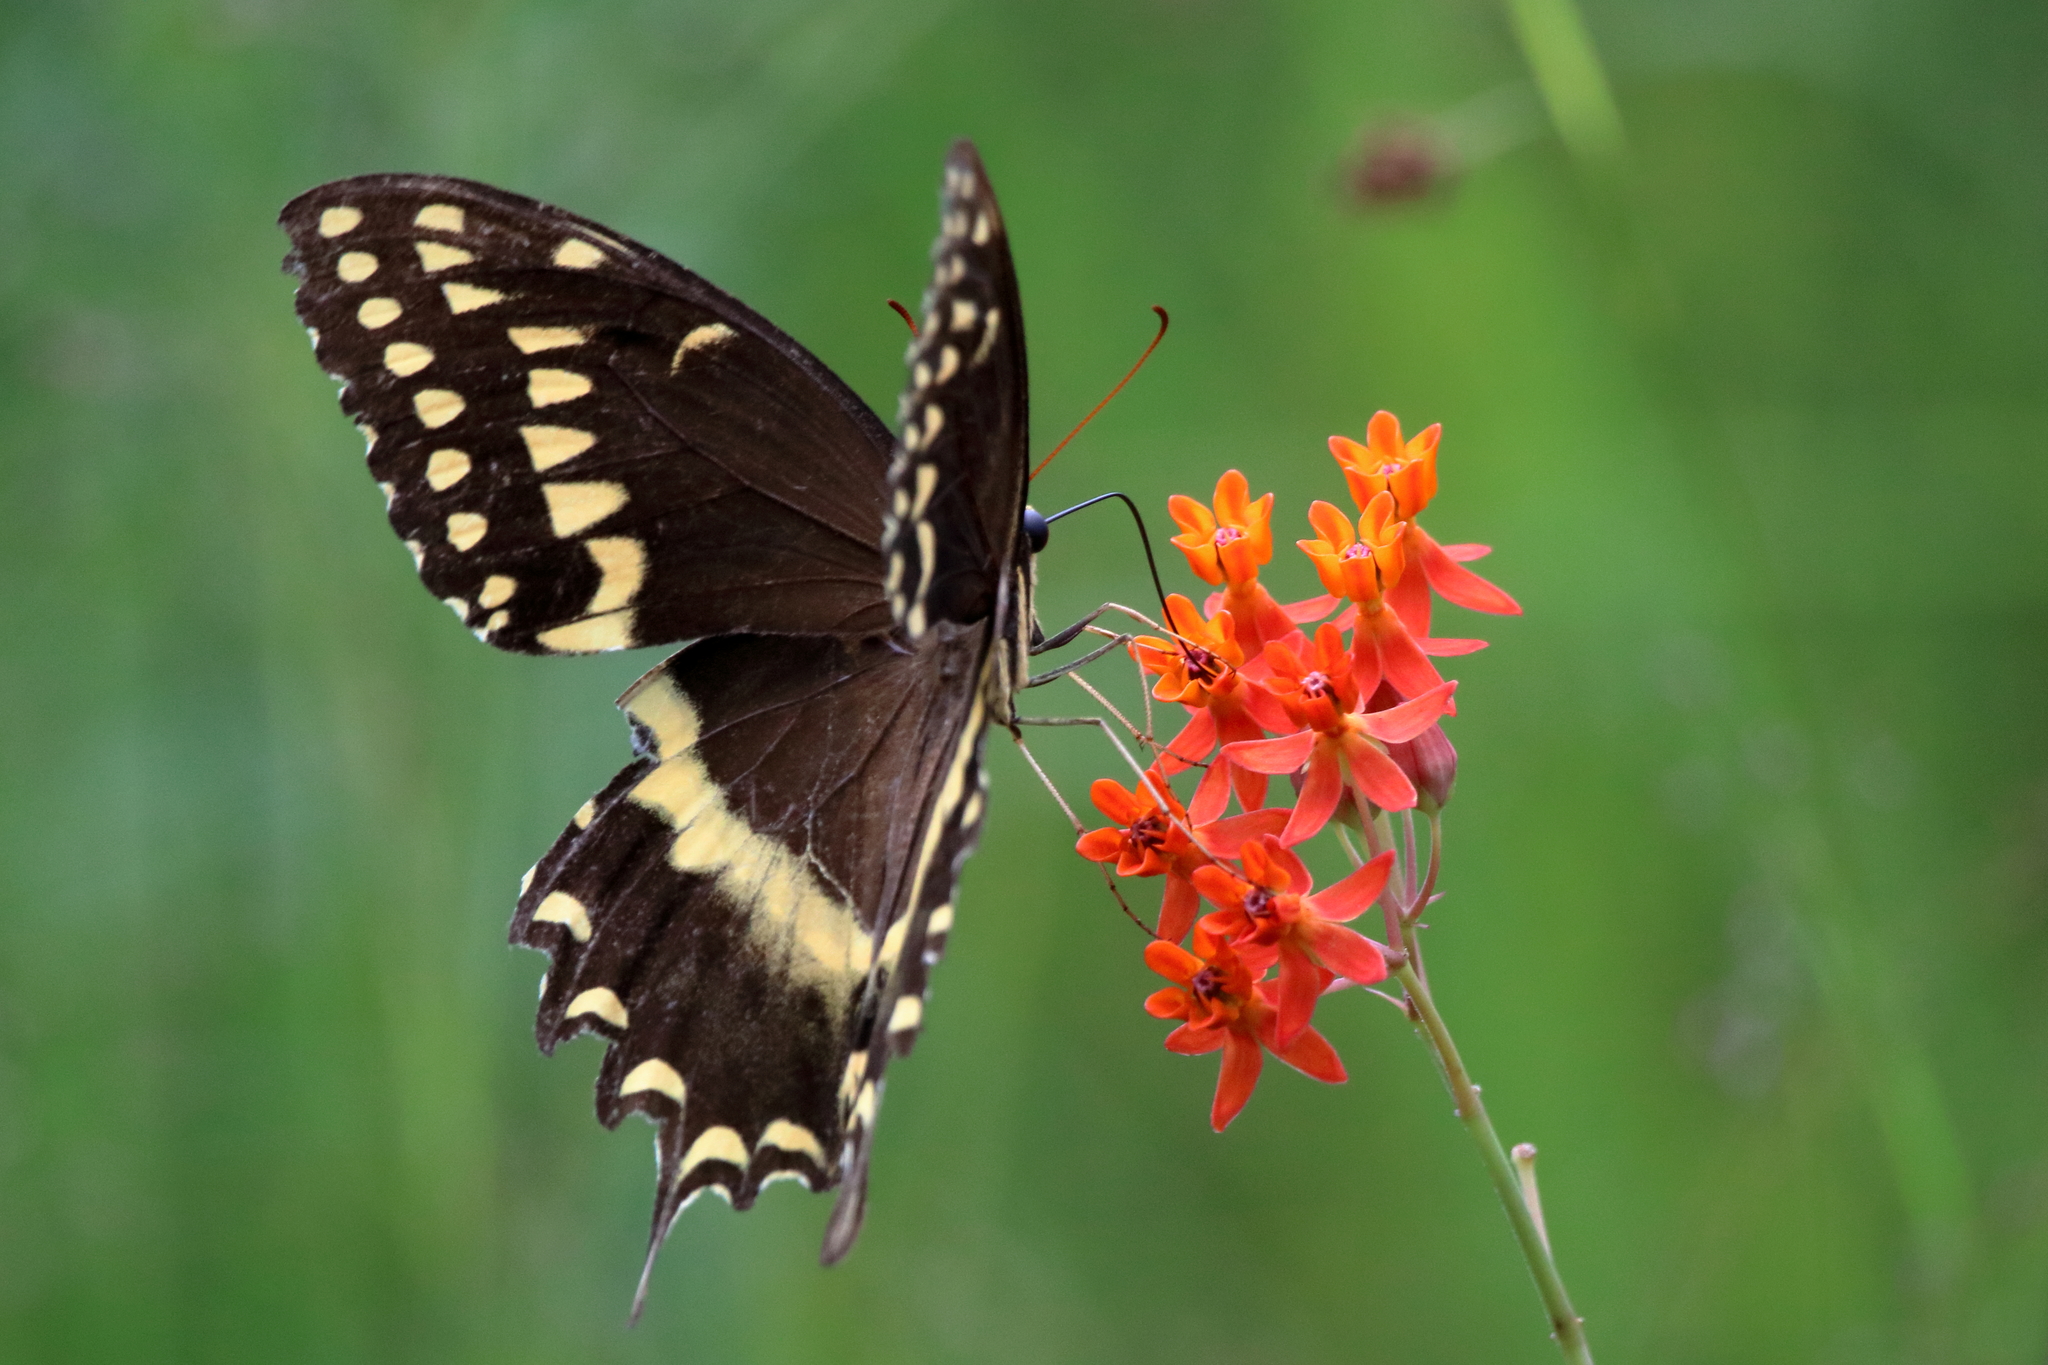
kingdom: Animalia
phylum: Arthropoda
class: Insecta
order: Lepidoptera
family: Papilionidae
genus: Papilio
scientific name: Papilio palamedes
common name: Palamedes swallowtail
